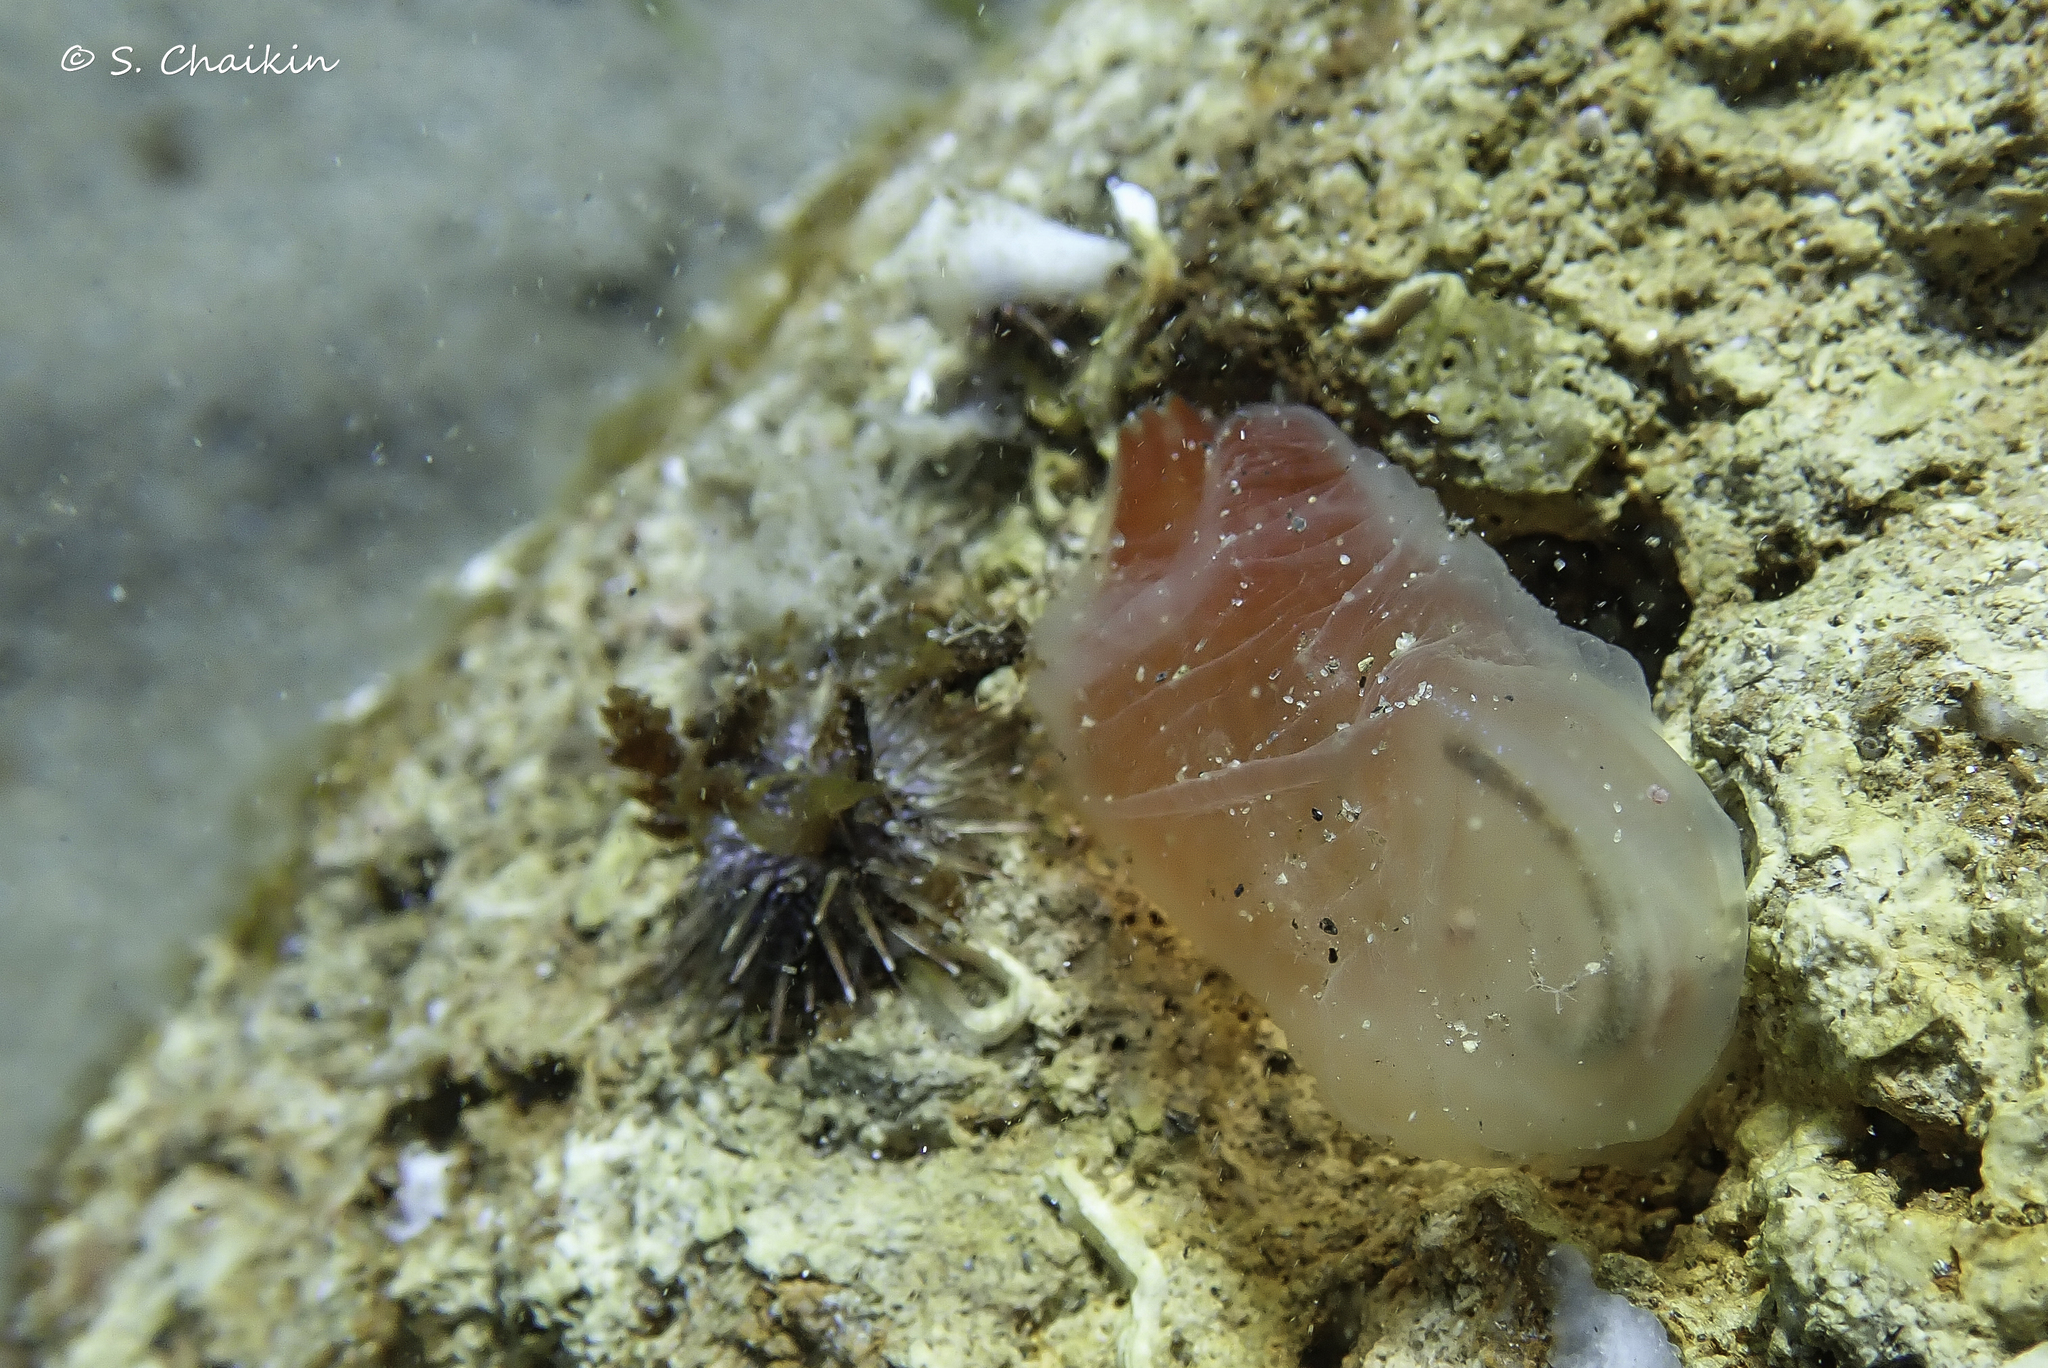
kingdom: Animalia
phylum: Chordata
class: Ascidiacea
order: Phlebobranchia
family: Cionidae
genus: Ciona
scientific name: Ciona roulii
